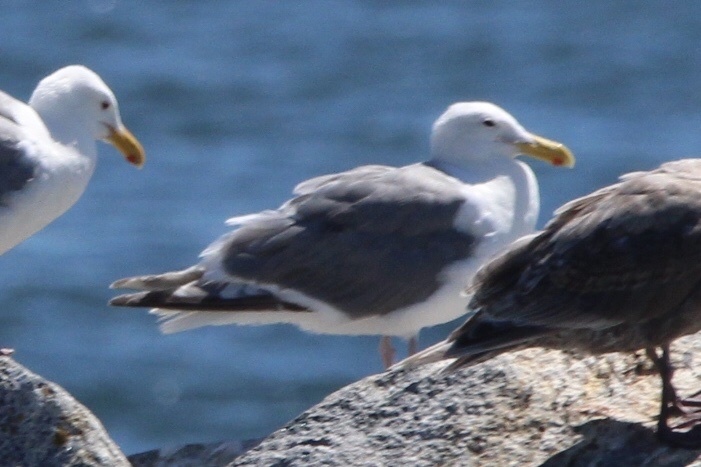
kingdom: Animalia
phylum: Chordata
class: Aves
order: Charadriiformes
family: Laridae
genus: Larus
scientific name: Larus
